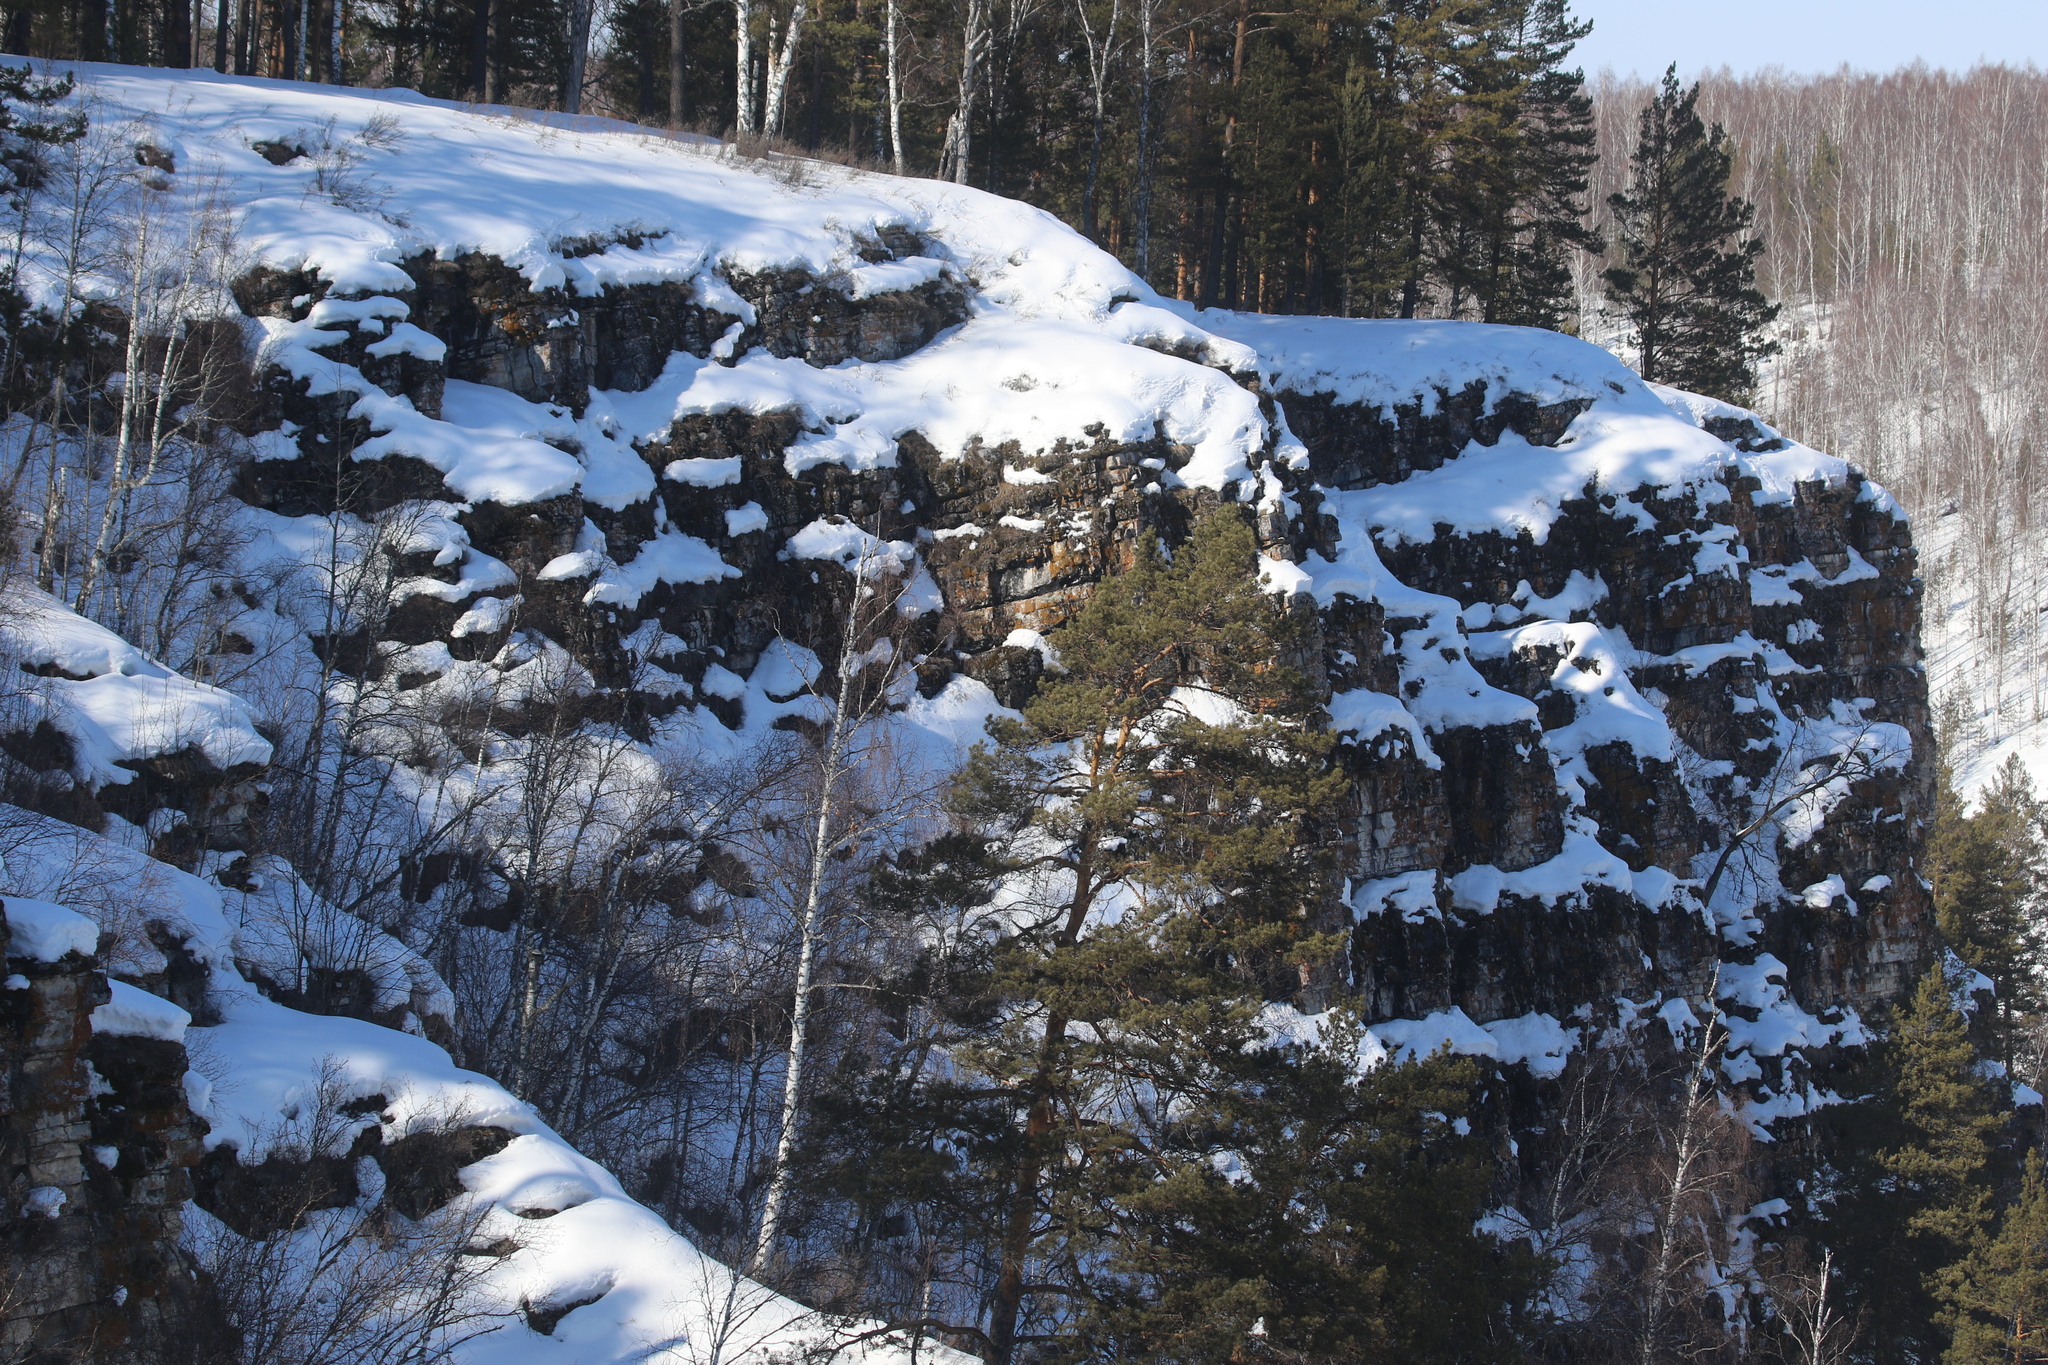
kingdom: Plantae
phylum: Tracheophyta
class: Pinopsida
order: Pinales
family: Pinaceae
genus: Pinus
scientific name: Pinus sylvestris
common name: Scots pine
